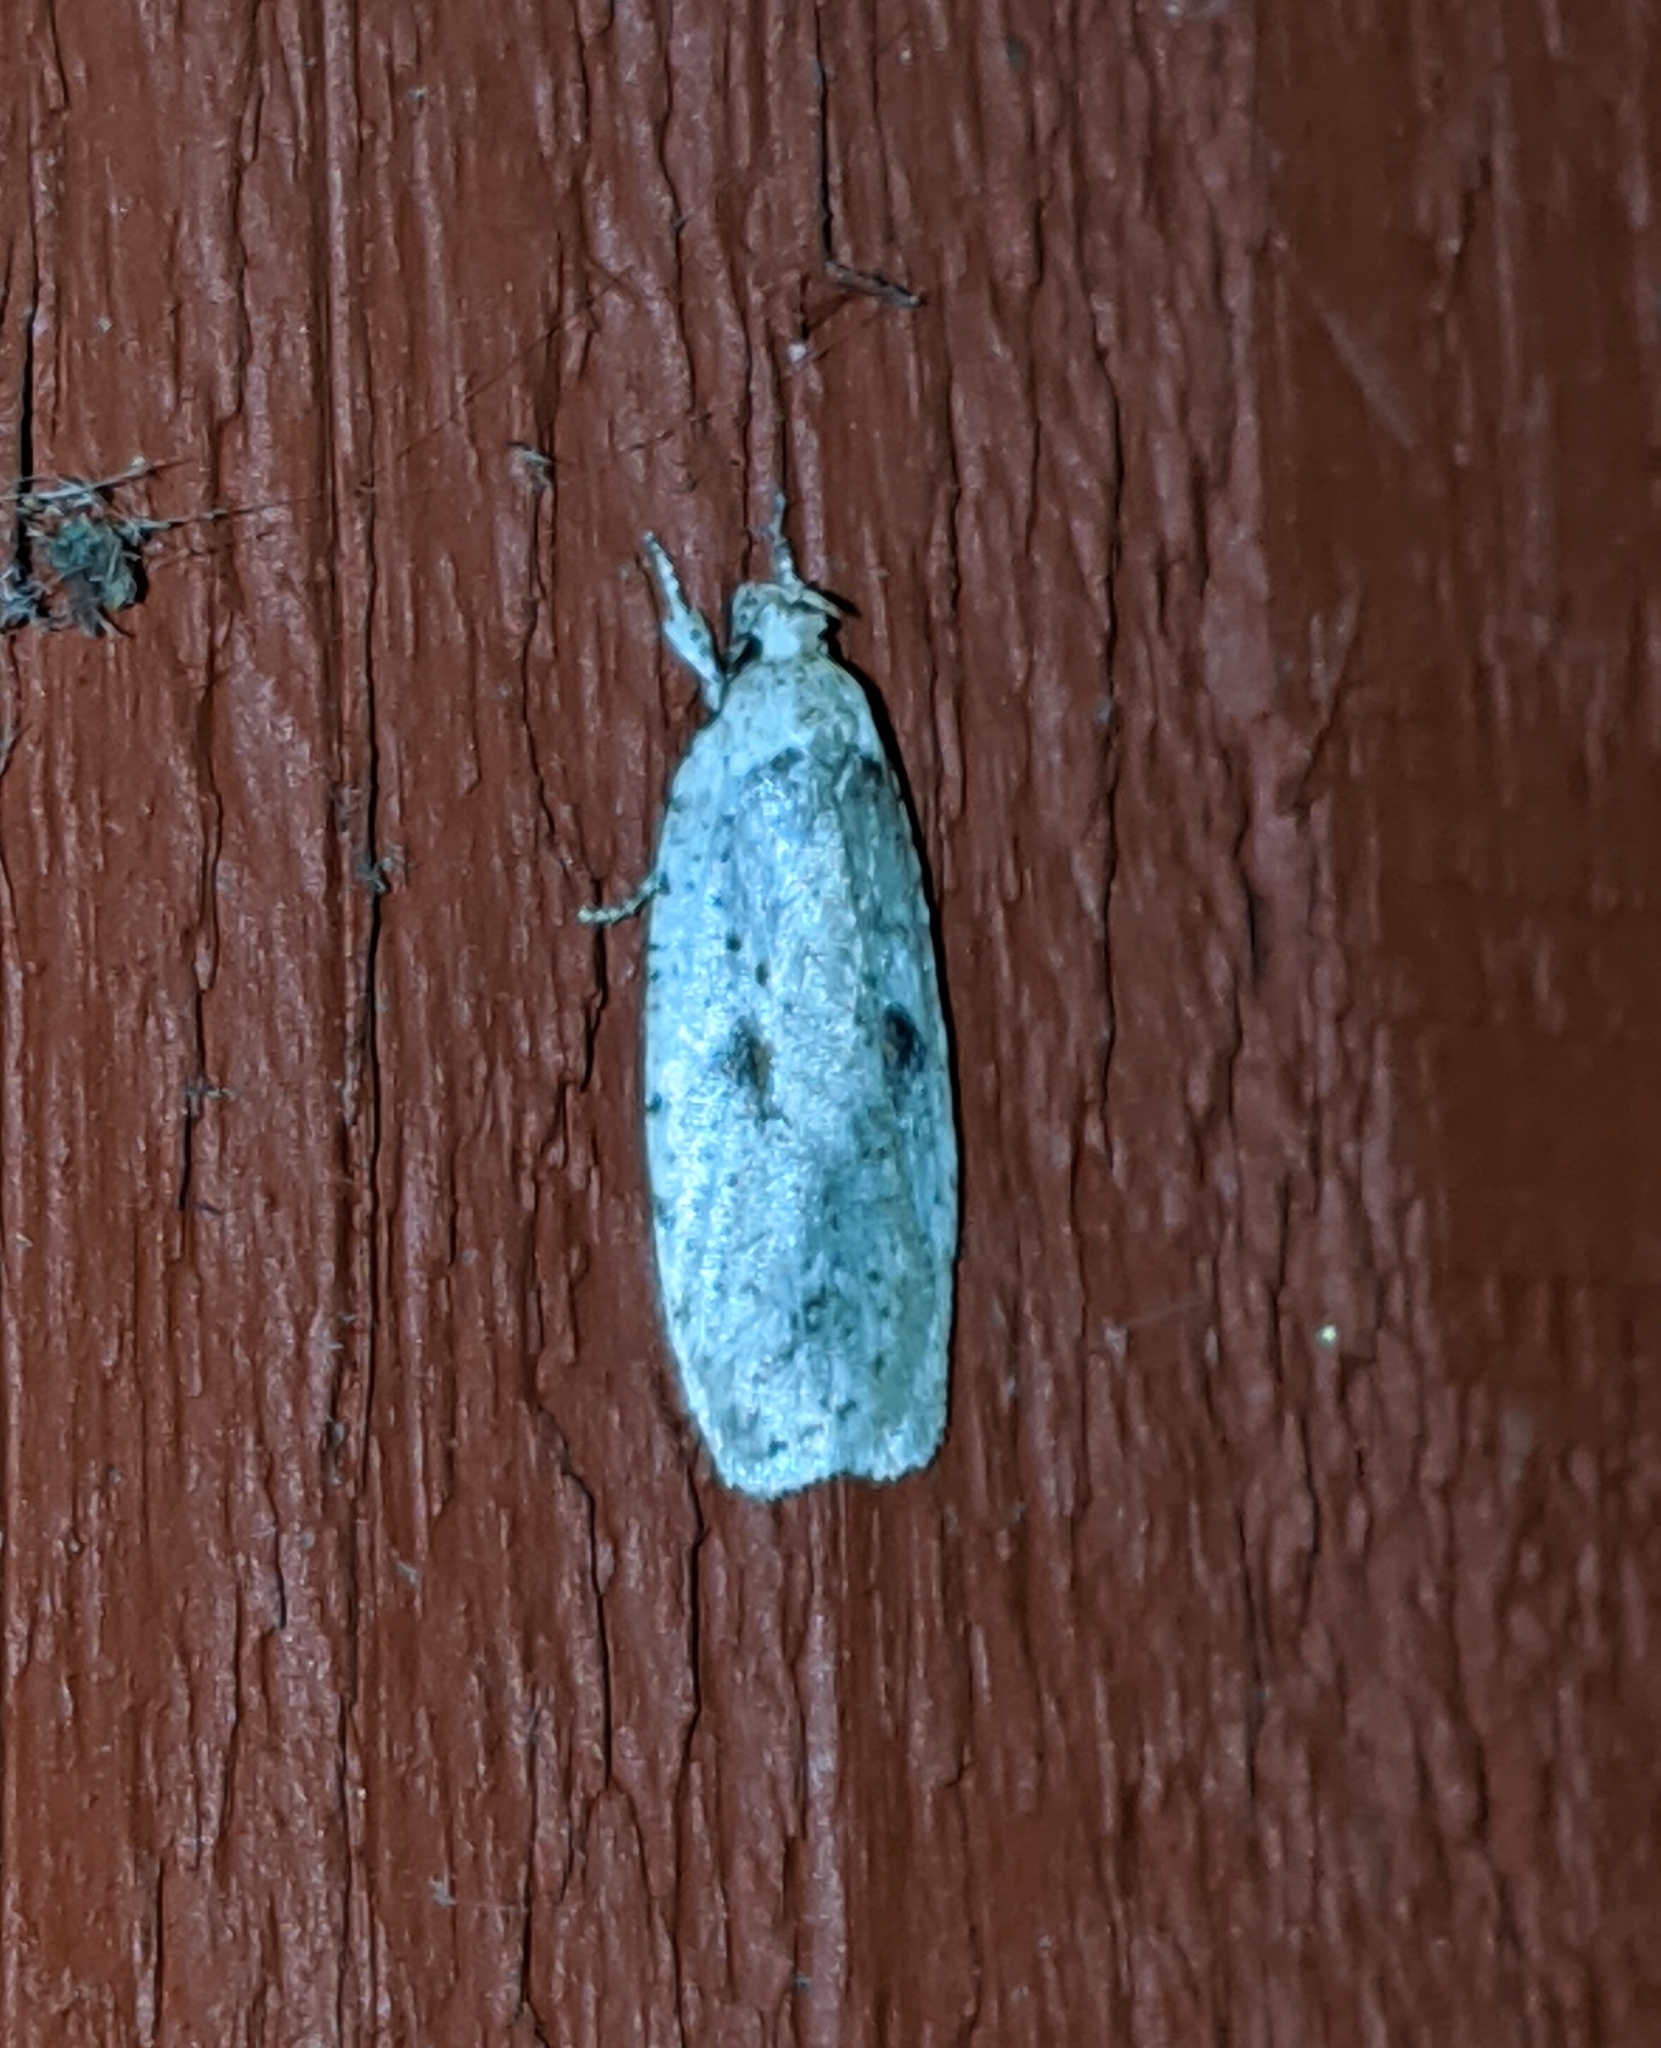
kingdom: Animalia
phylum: Arthropoda
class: Insecta
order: Lepidoptera
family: Depressariidae
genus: Agonopterix
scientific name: Agonopterix canadensis
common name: Canadian agonopterix moth
